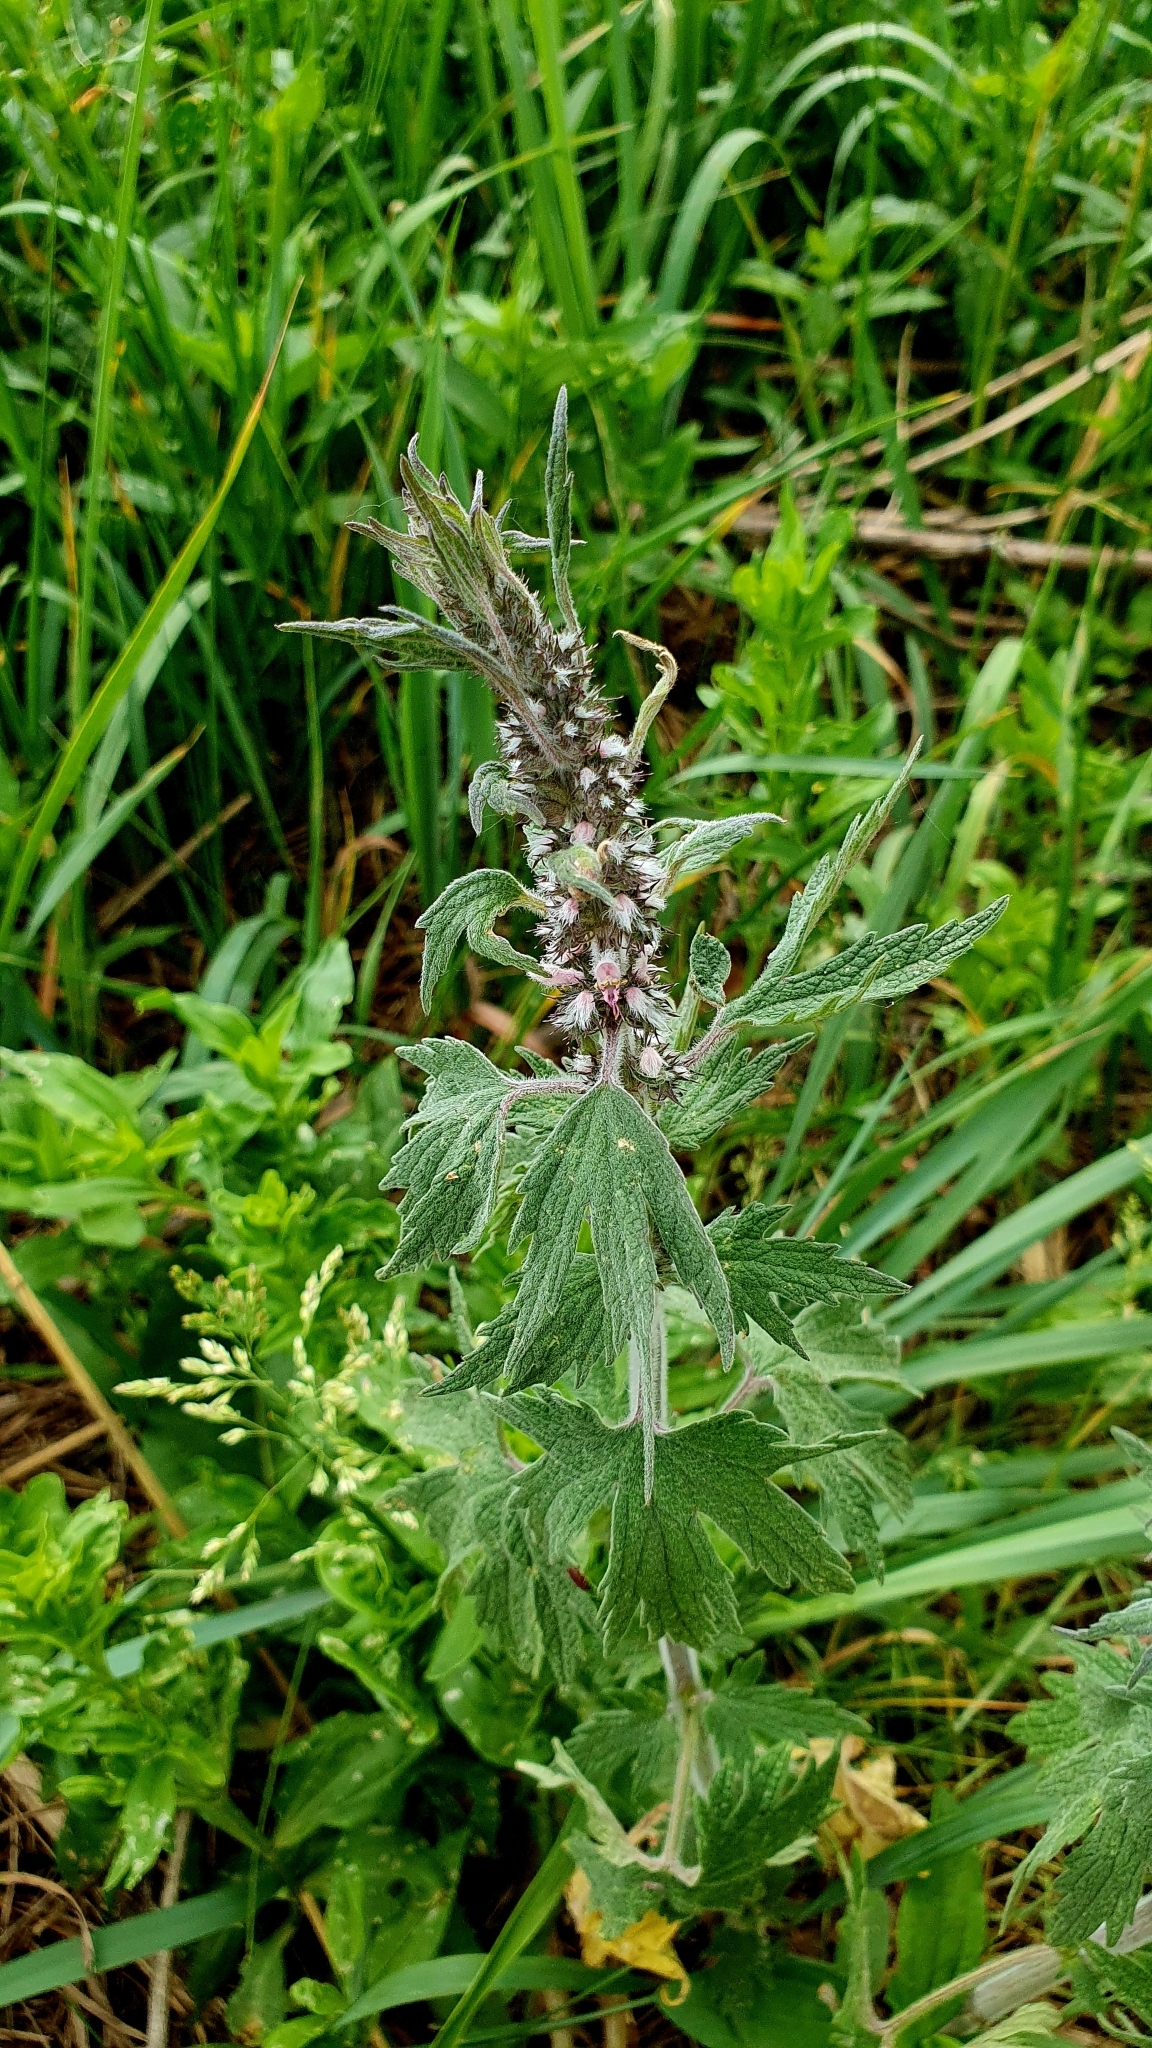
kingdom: Plantae
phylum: Tracheophyta
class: Magnoliopsida
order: Lamiales
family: Lamiaceae
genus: Leonurus
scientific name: Leonurus quinquelobatus
